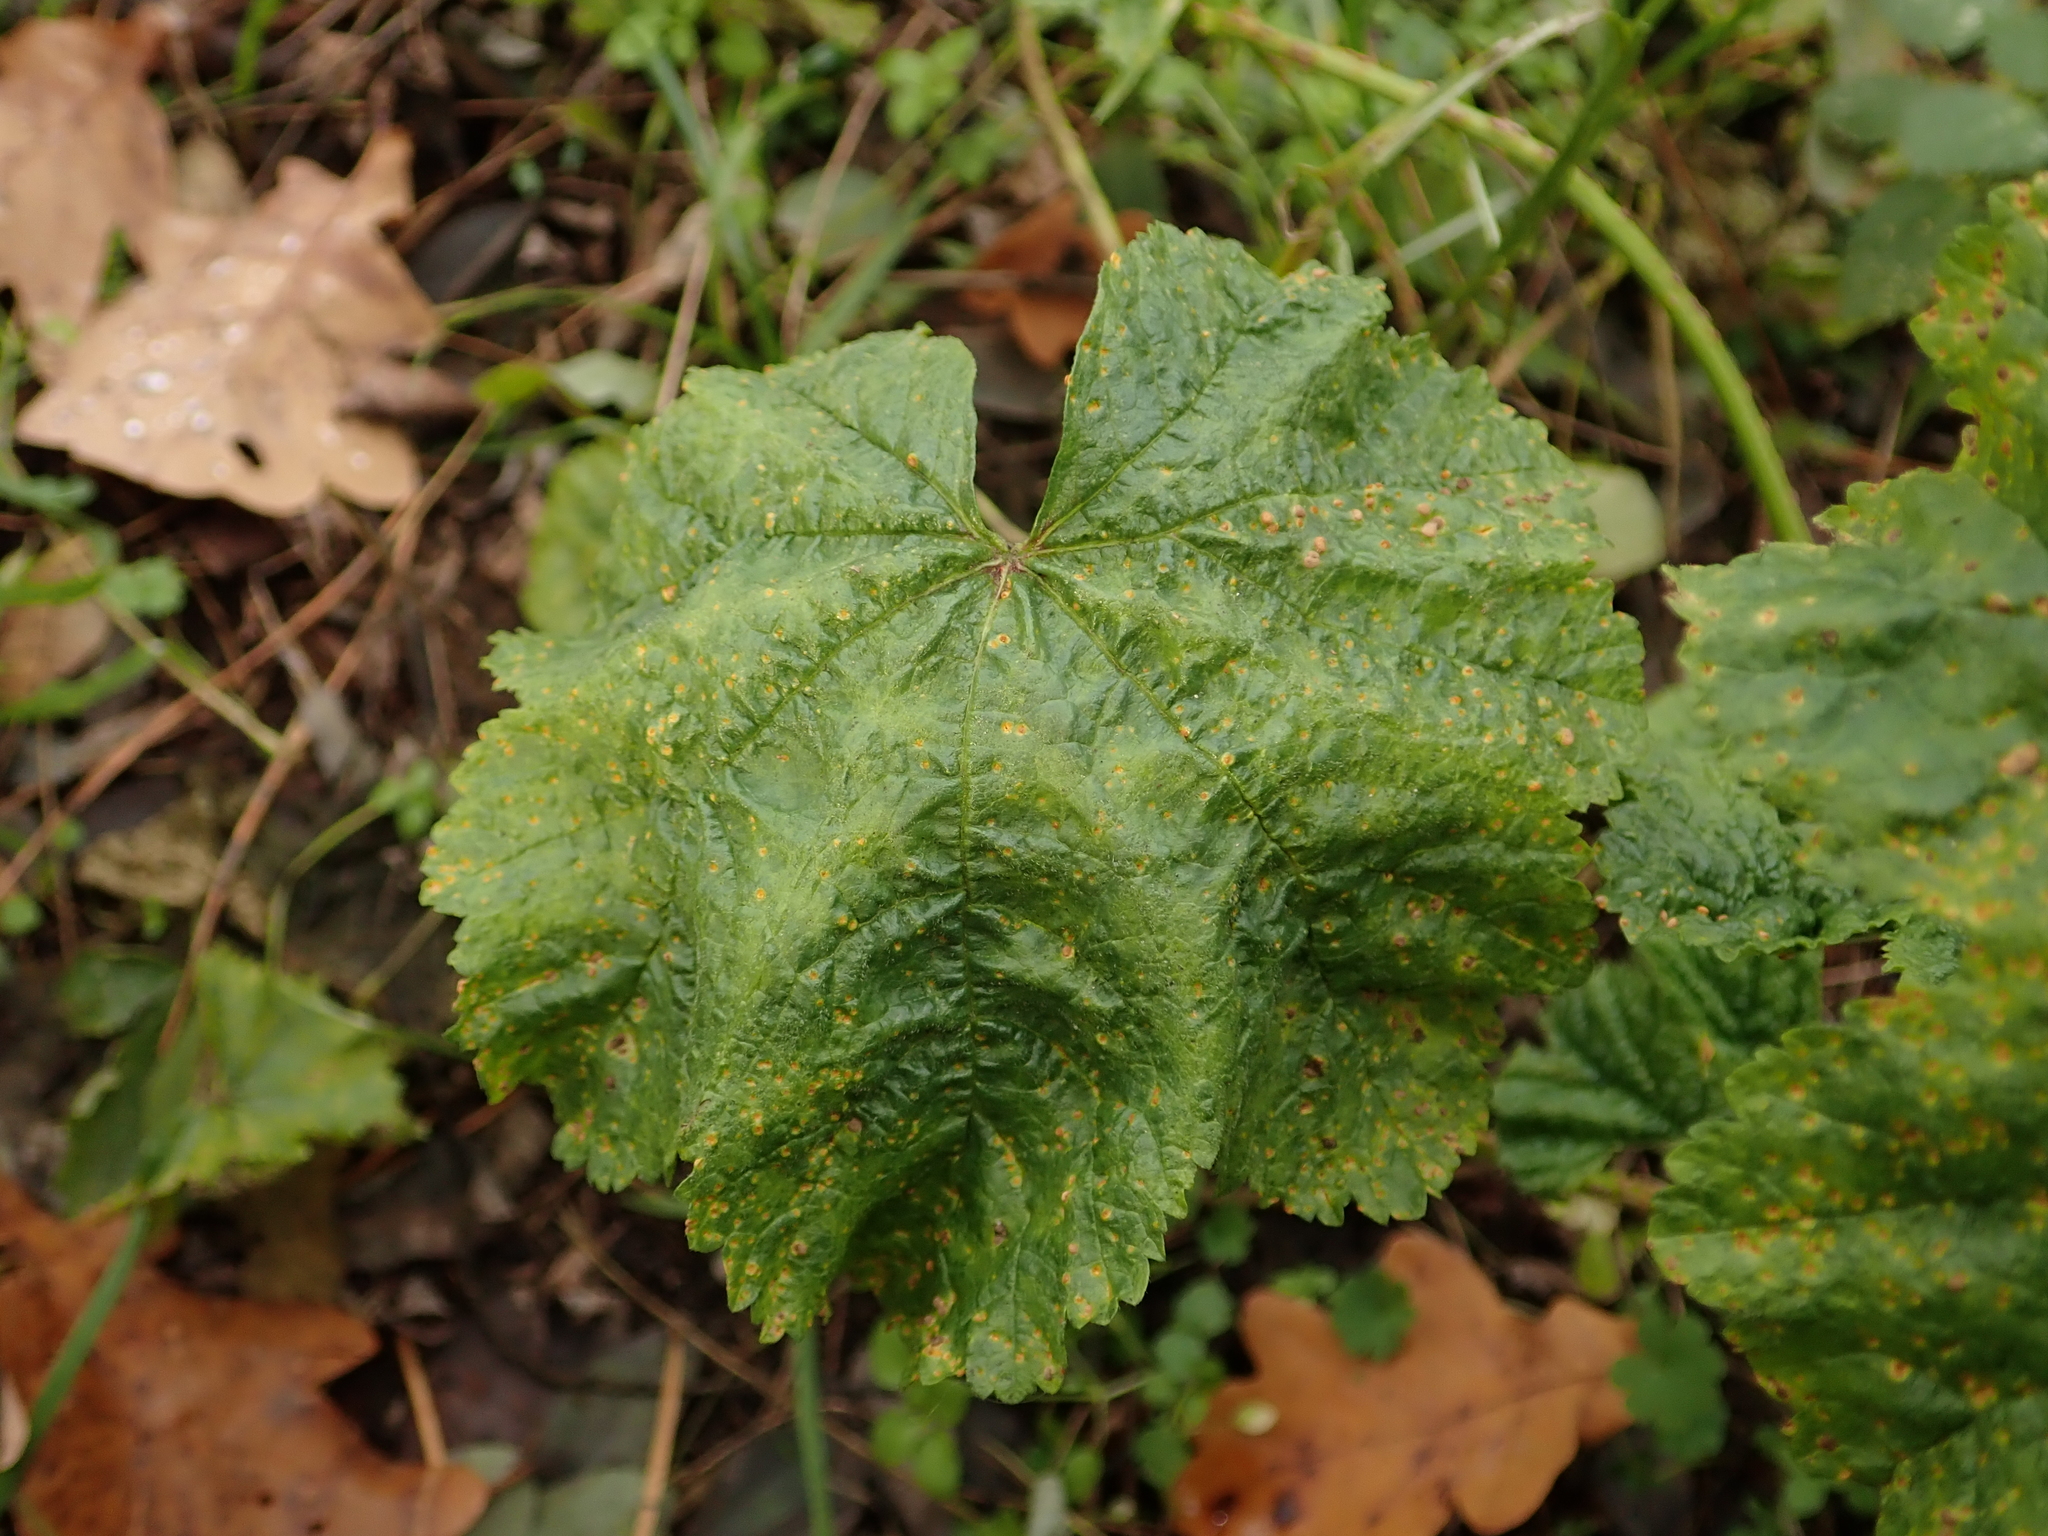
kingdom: Plantae
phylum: Tracheophyta
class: Magnoliopsida
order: Malvales
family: Malvaceae
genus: Malva
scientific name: Malva sylvestris
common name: Common mallow
